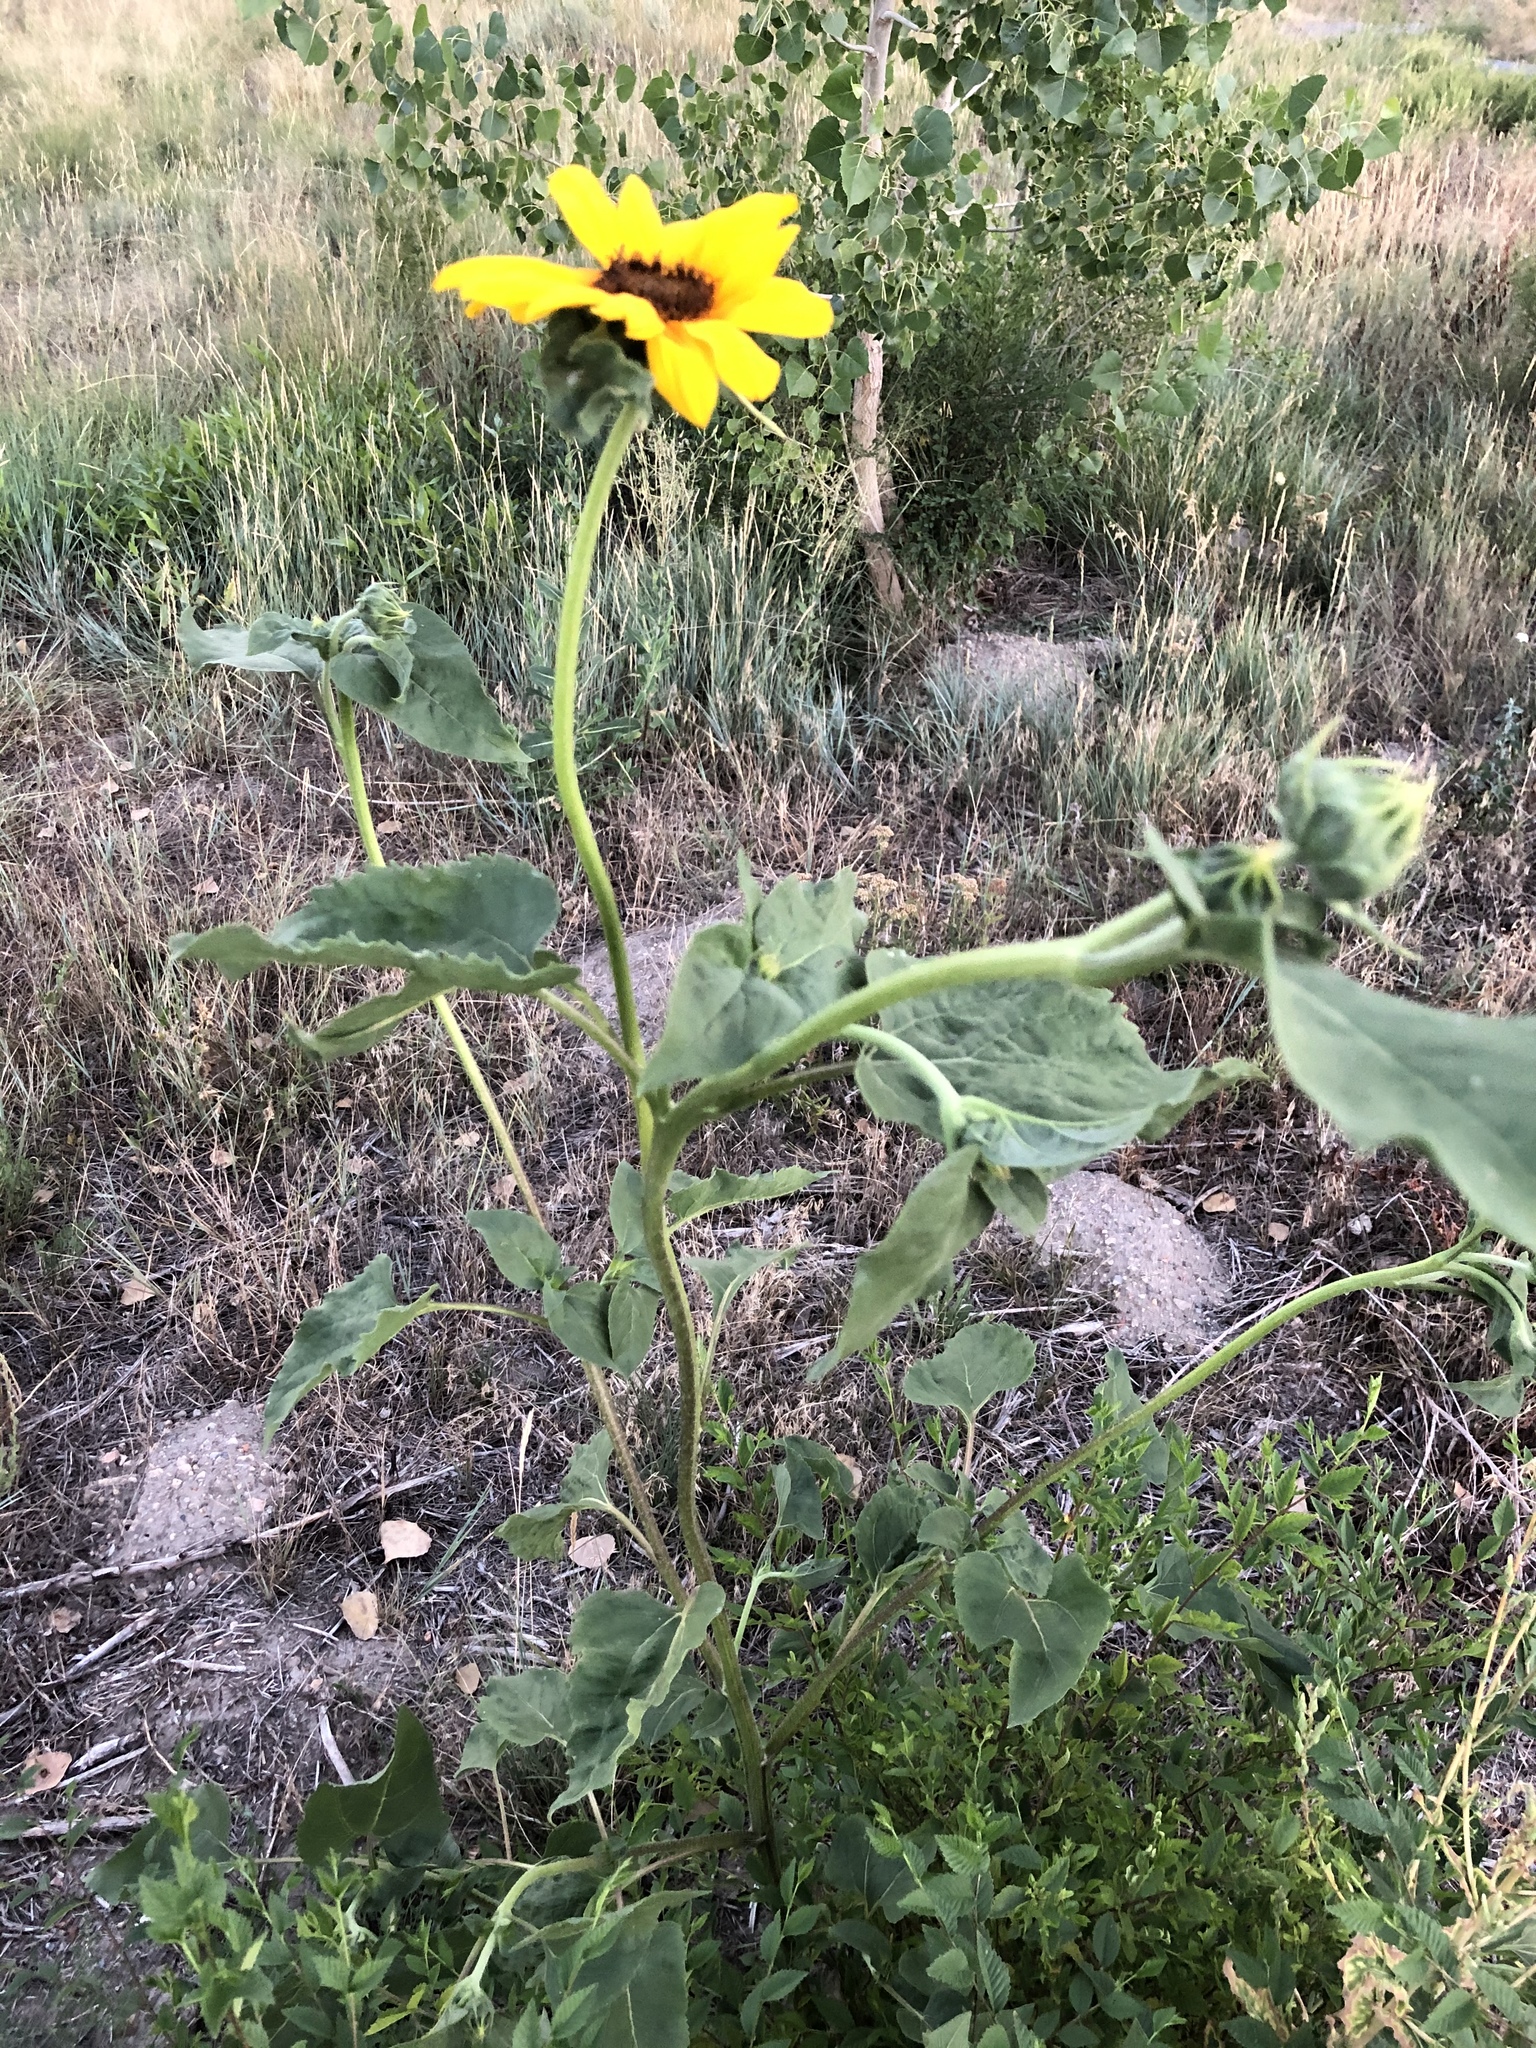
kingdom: Plantae
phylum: Tracheophyta
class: Magnoliopsida
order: Asterales
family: Asteraceae
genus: Helianthus
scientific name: Helianthus annuus
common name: Sunflower
